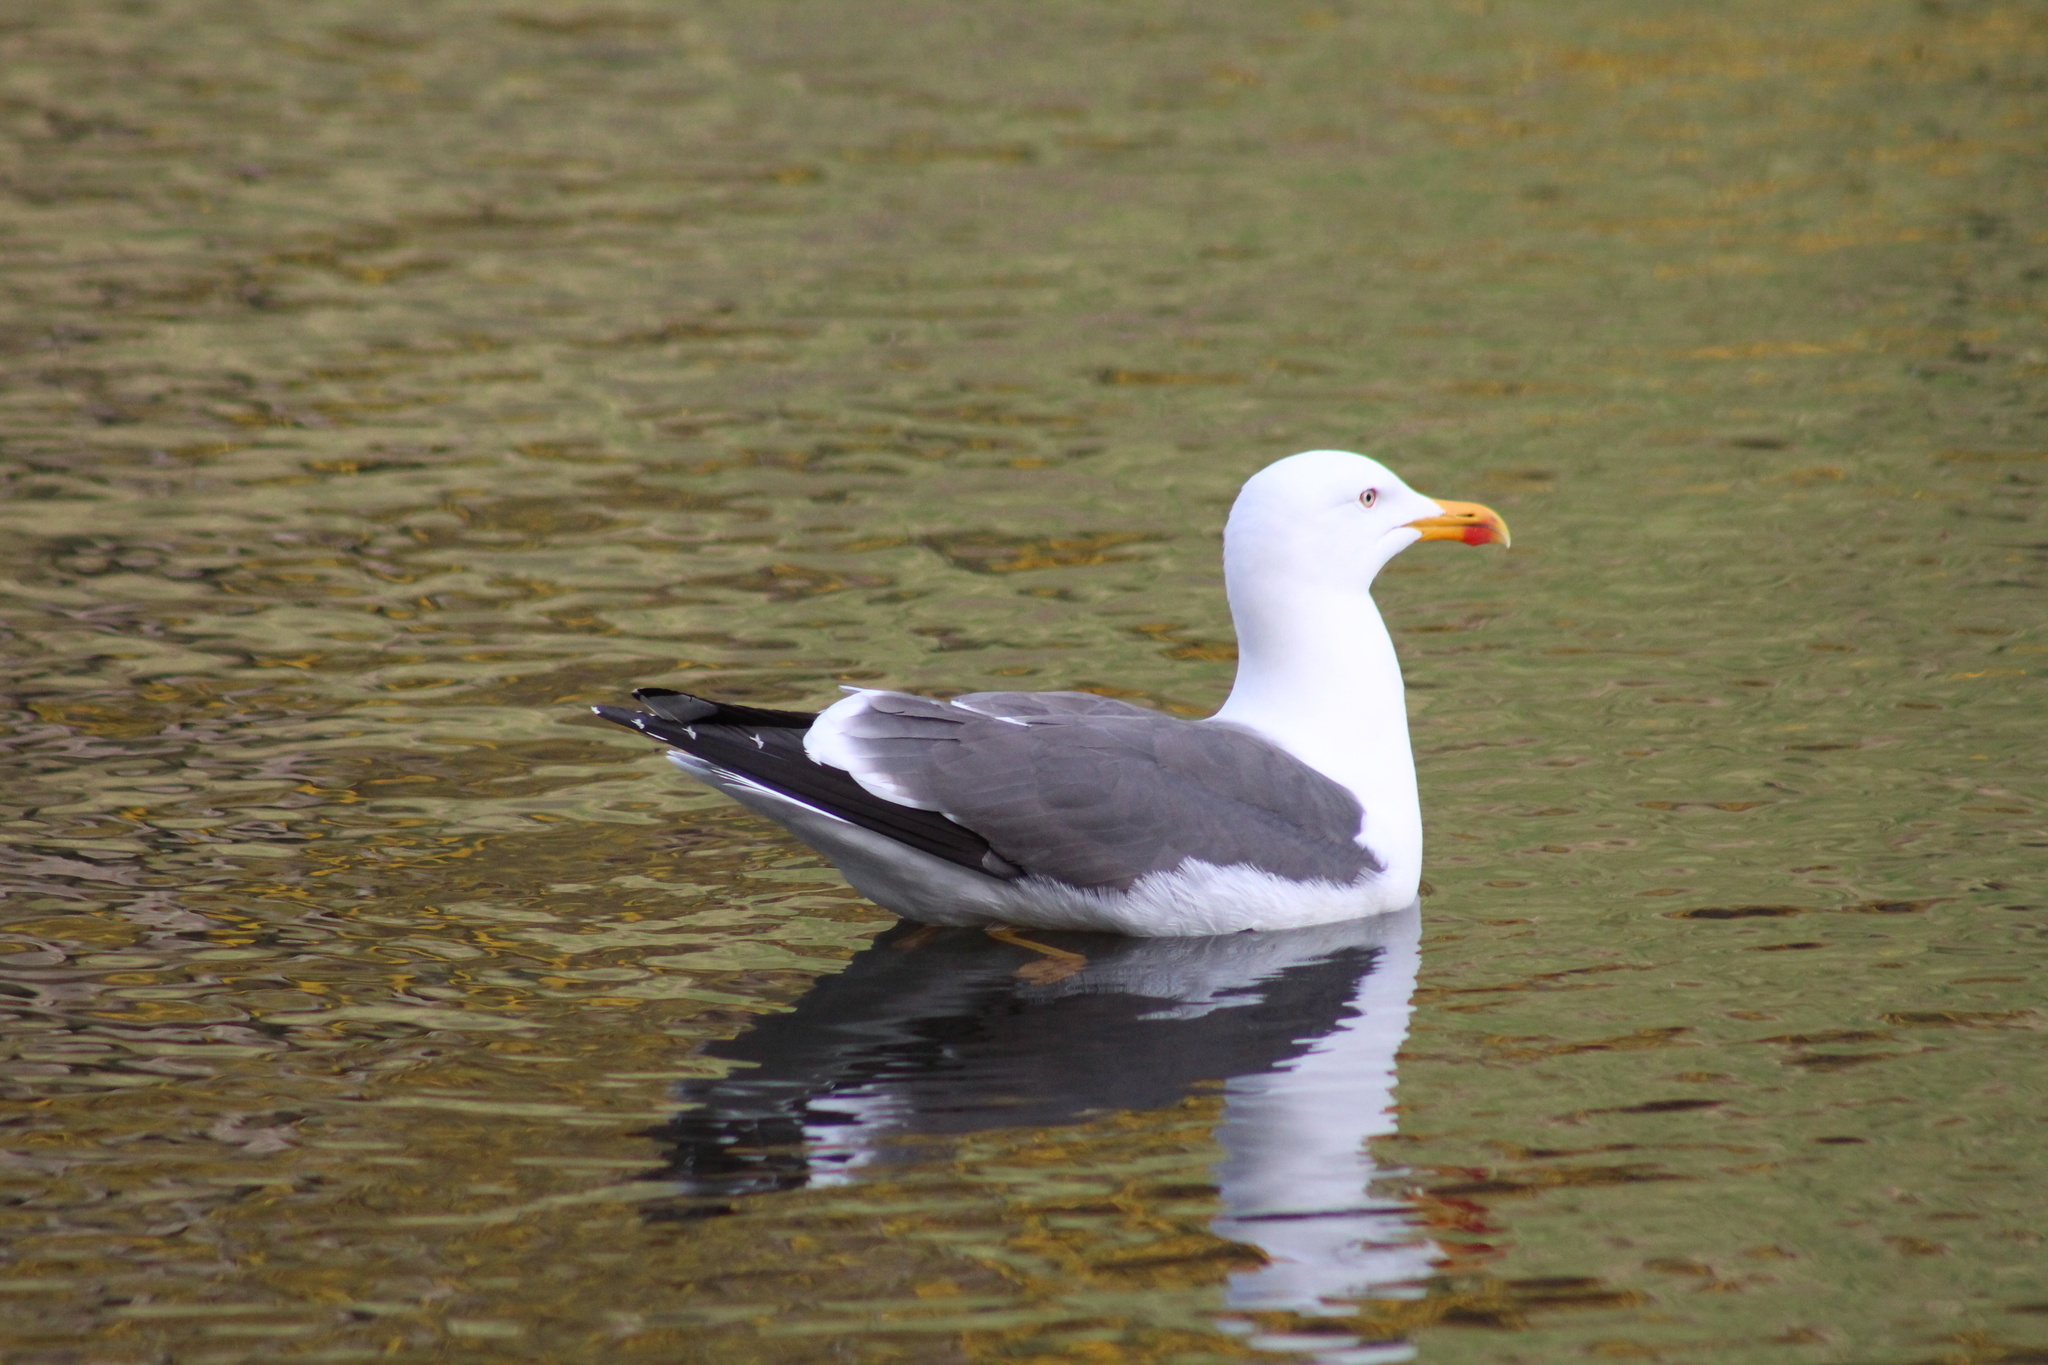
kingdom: Animalia
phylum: Chordata
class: Aves
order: Charadriiformes
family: Laridae
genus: Larus
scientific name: Larus fuscus
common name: Lesser black-backed gull
